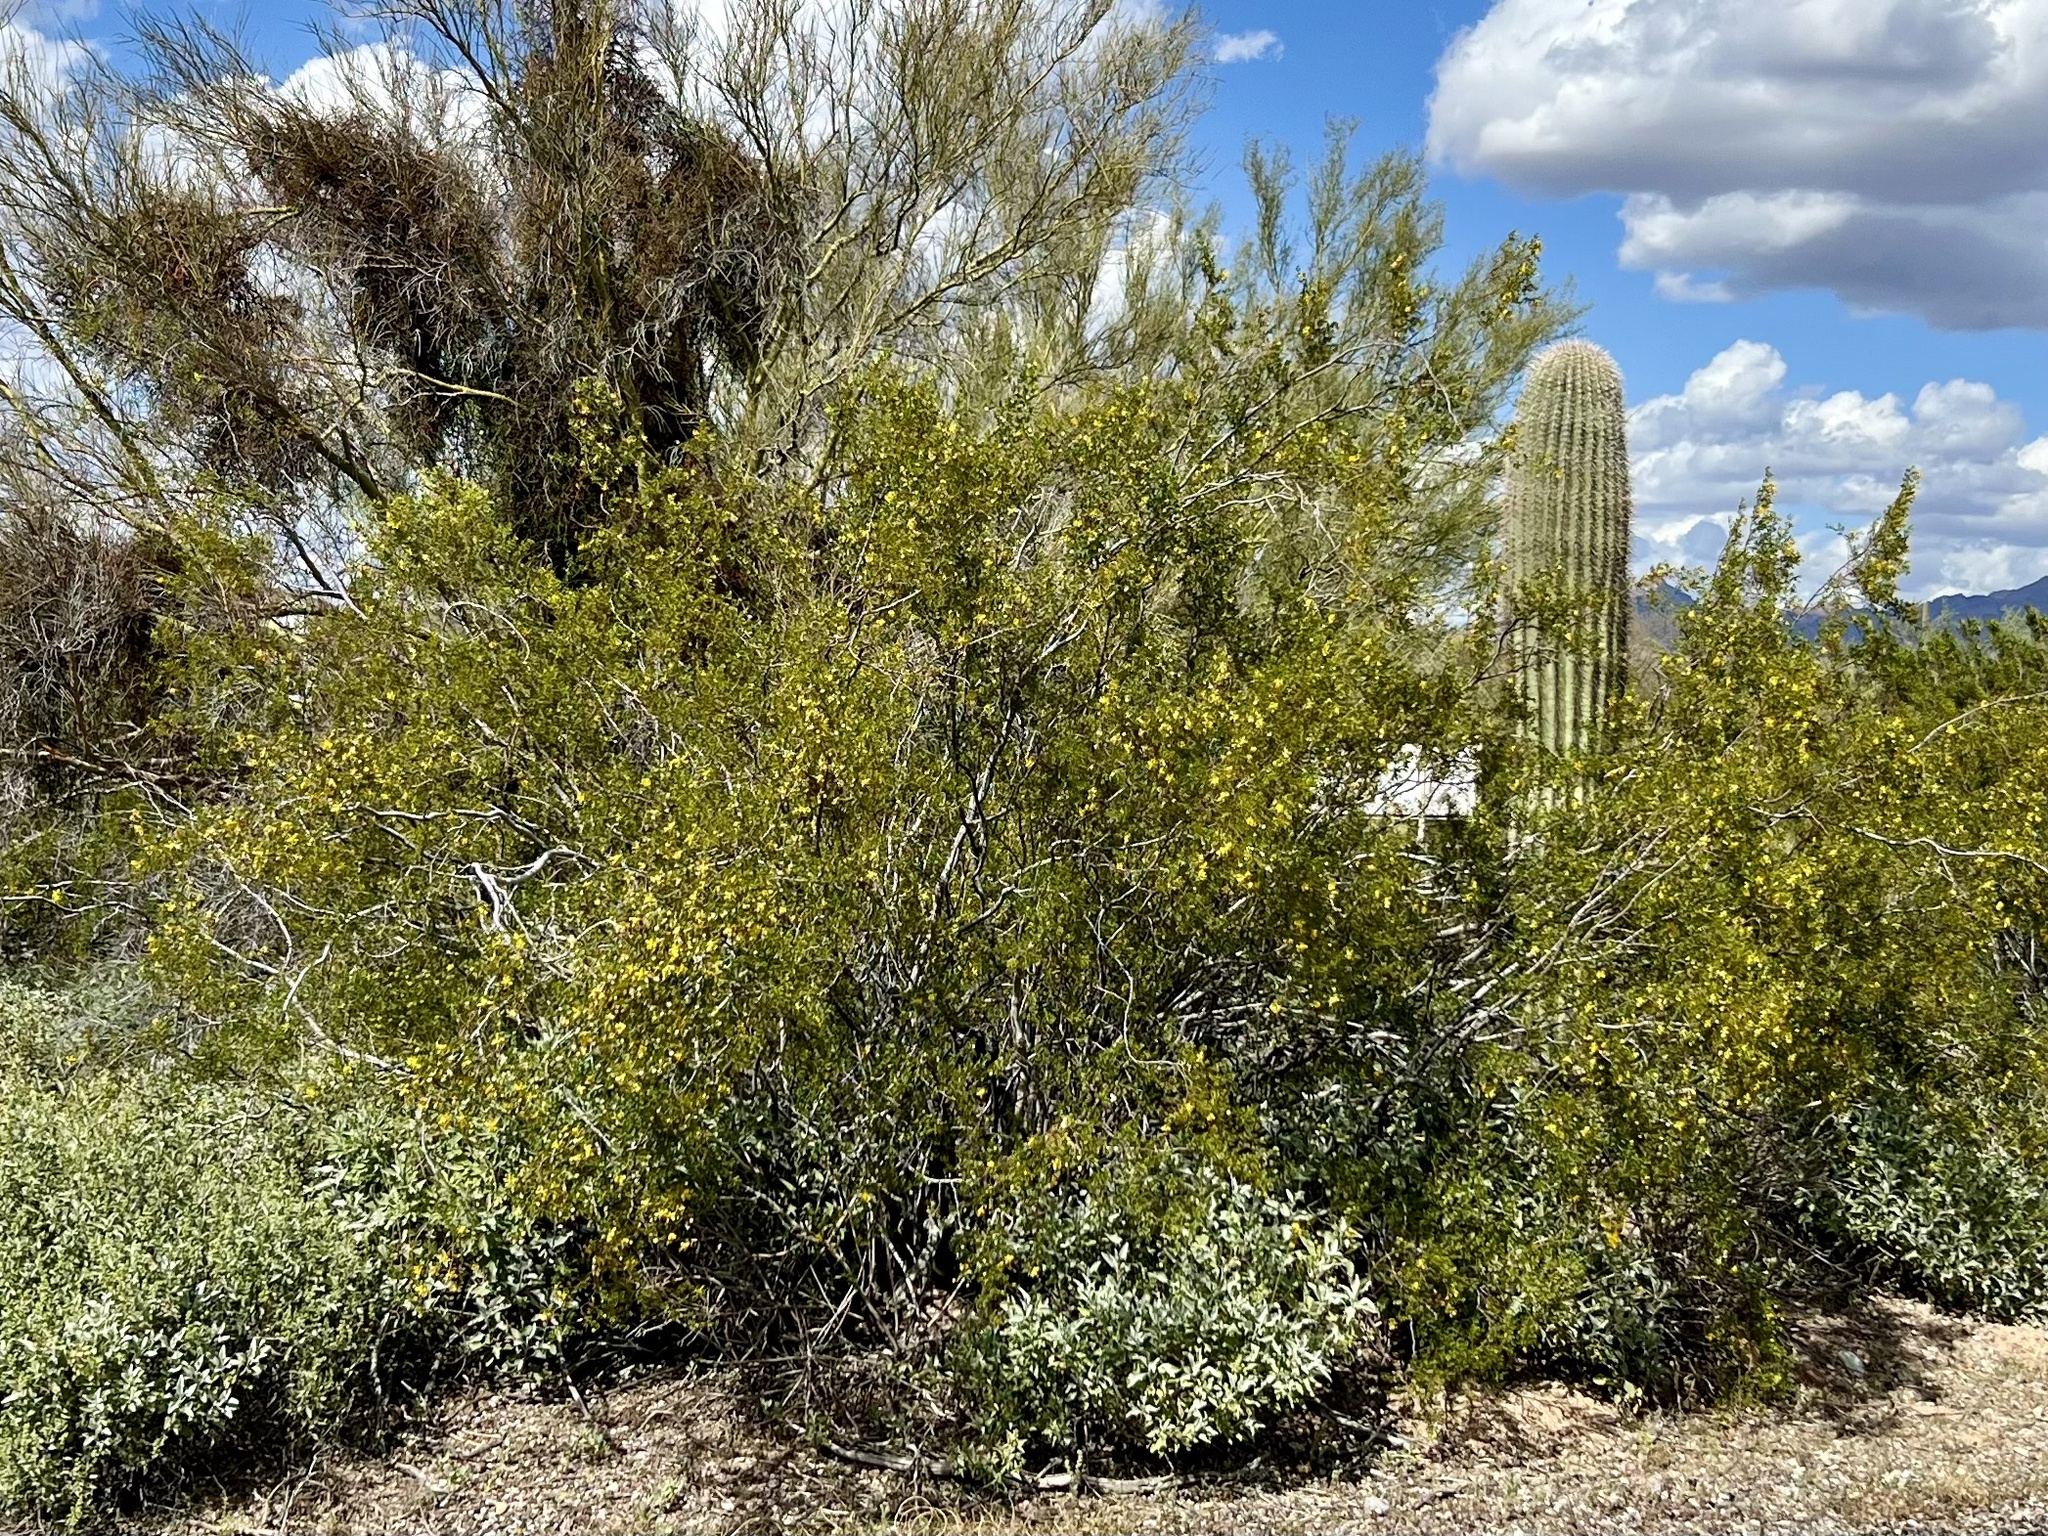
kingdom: Plantae
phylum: Tracheophyta
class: Magnoliopsida
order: Zygophyllales
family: Zygophyllaceae
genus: Larrea
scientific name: Larrea tridentata
